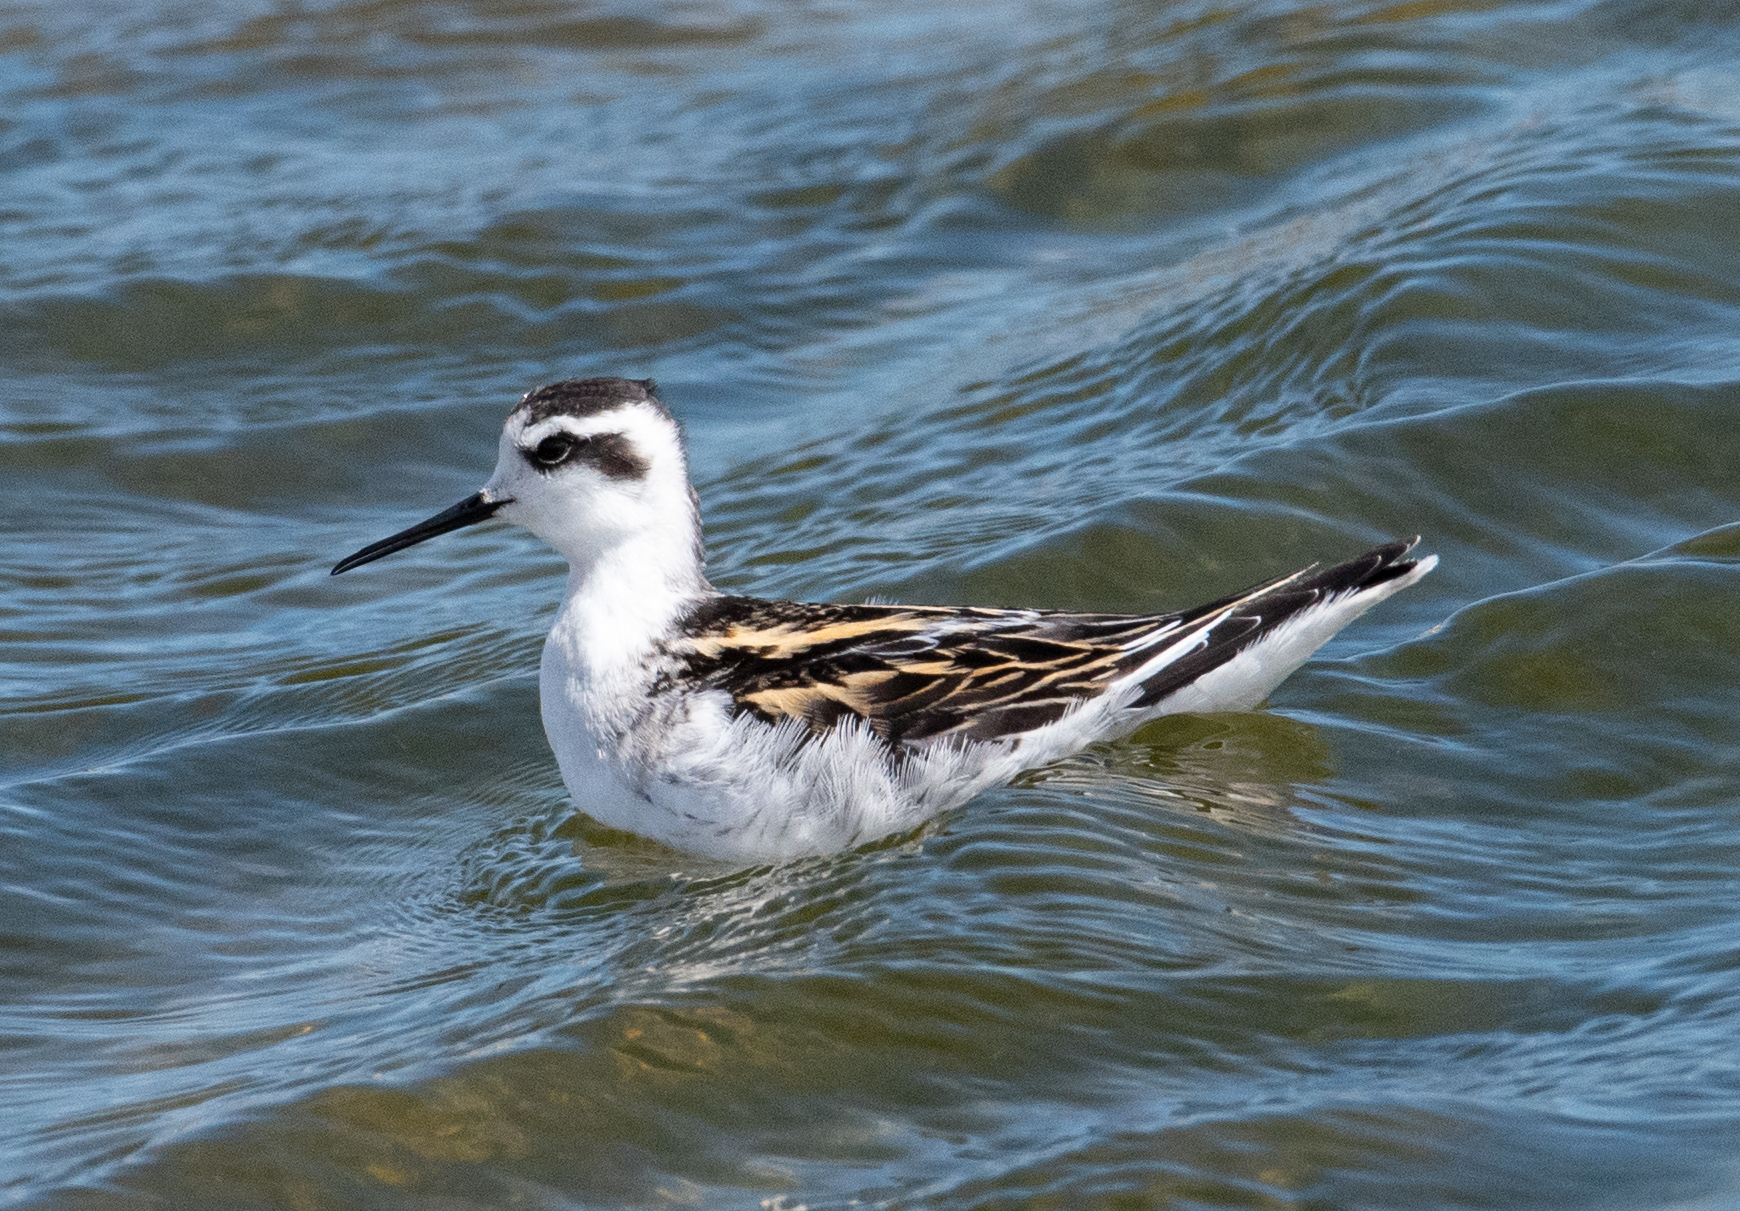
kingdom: Animalia
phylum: Chordata
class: Aves
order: Charadriiformes
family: Scolopacidae
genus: Phalaropus
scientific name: Phalaropus lobatus
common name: Red-necked phalarope
